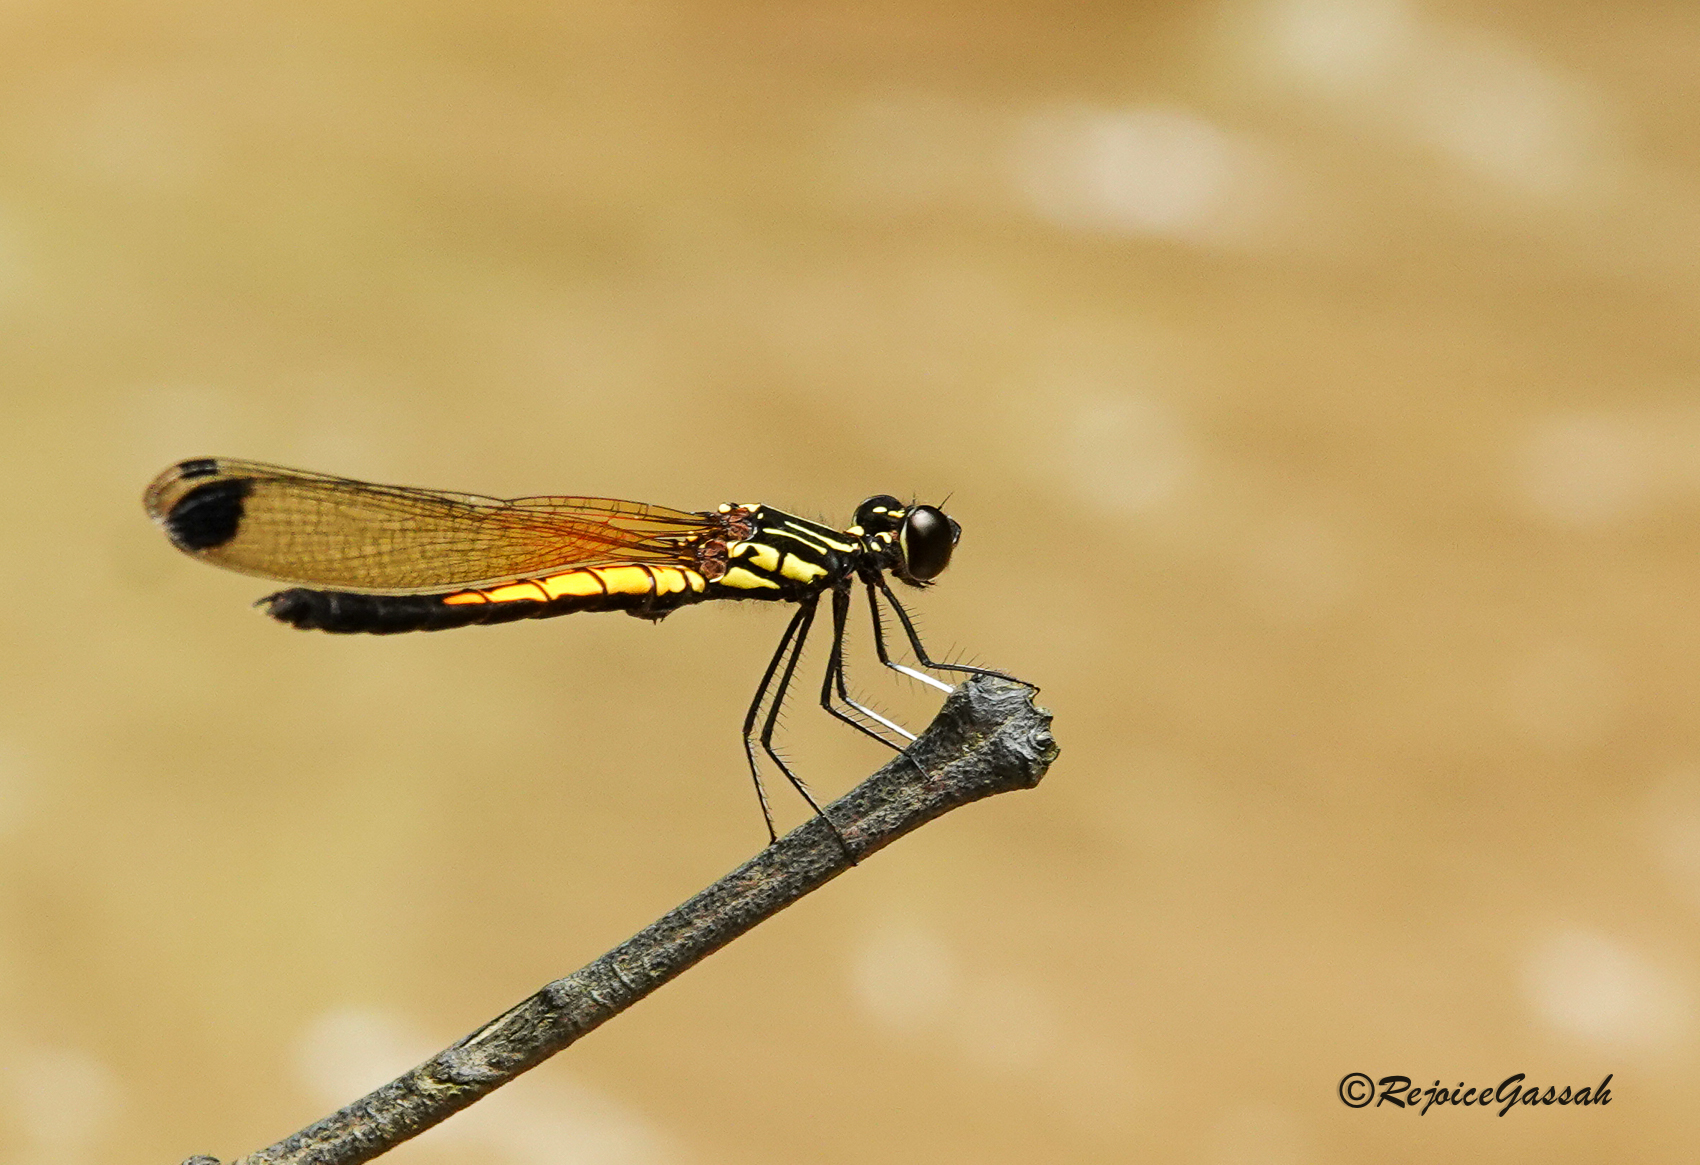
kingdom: Animalia
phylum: Arthropoda
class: Insecta
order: Odonata
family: Chlorocyphidae
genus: Libellago
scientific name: Libellago lineata
